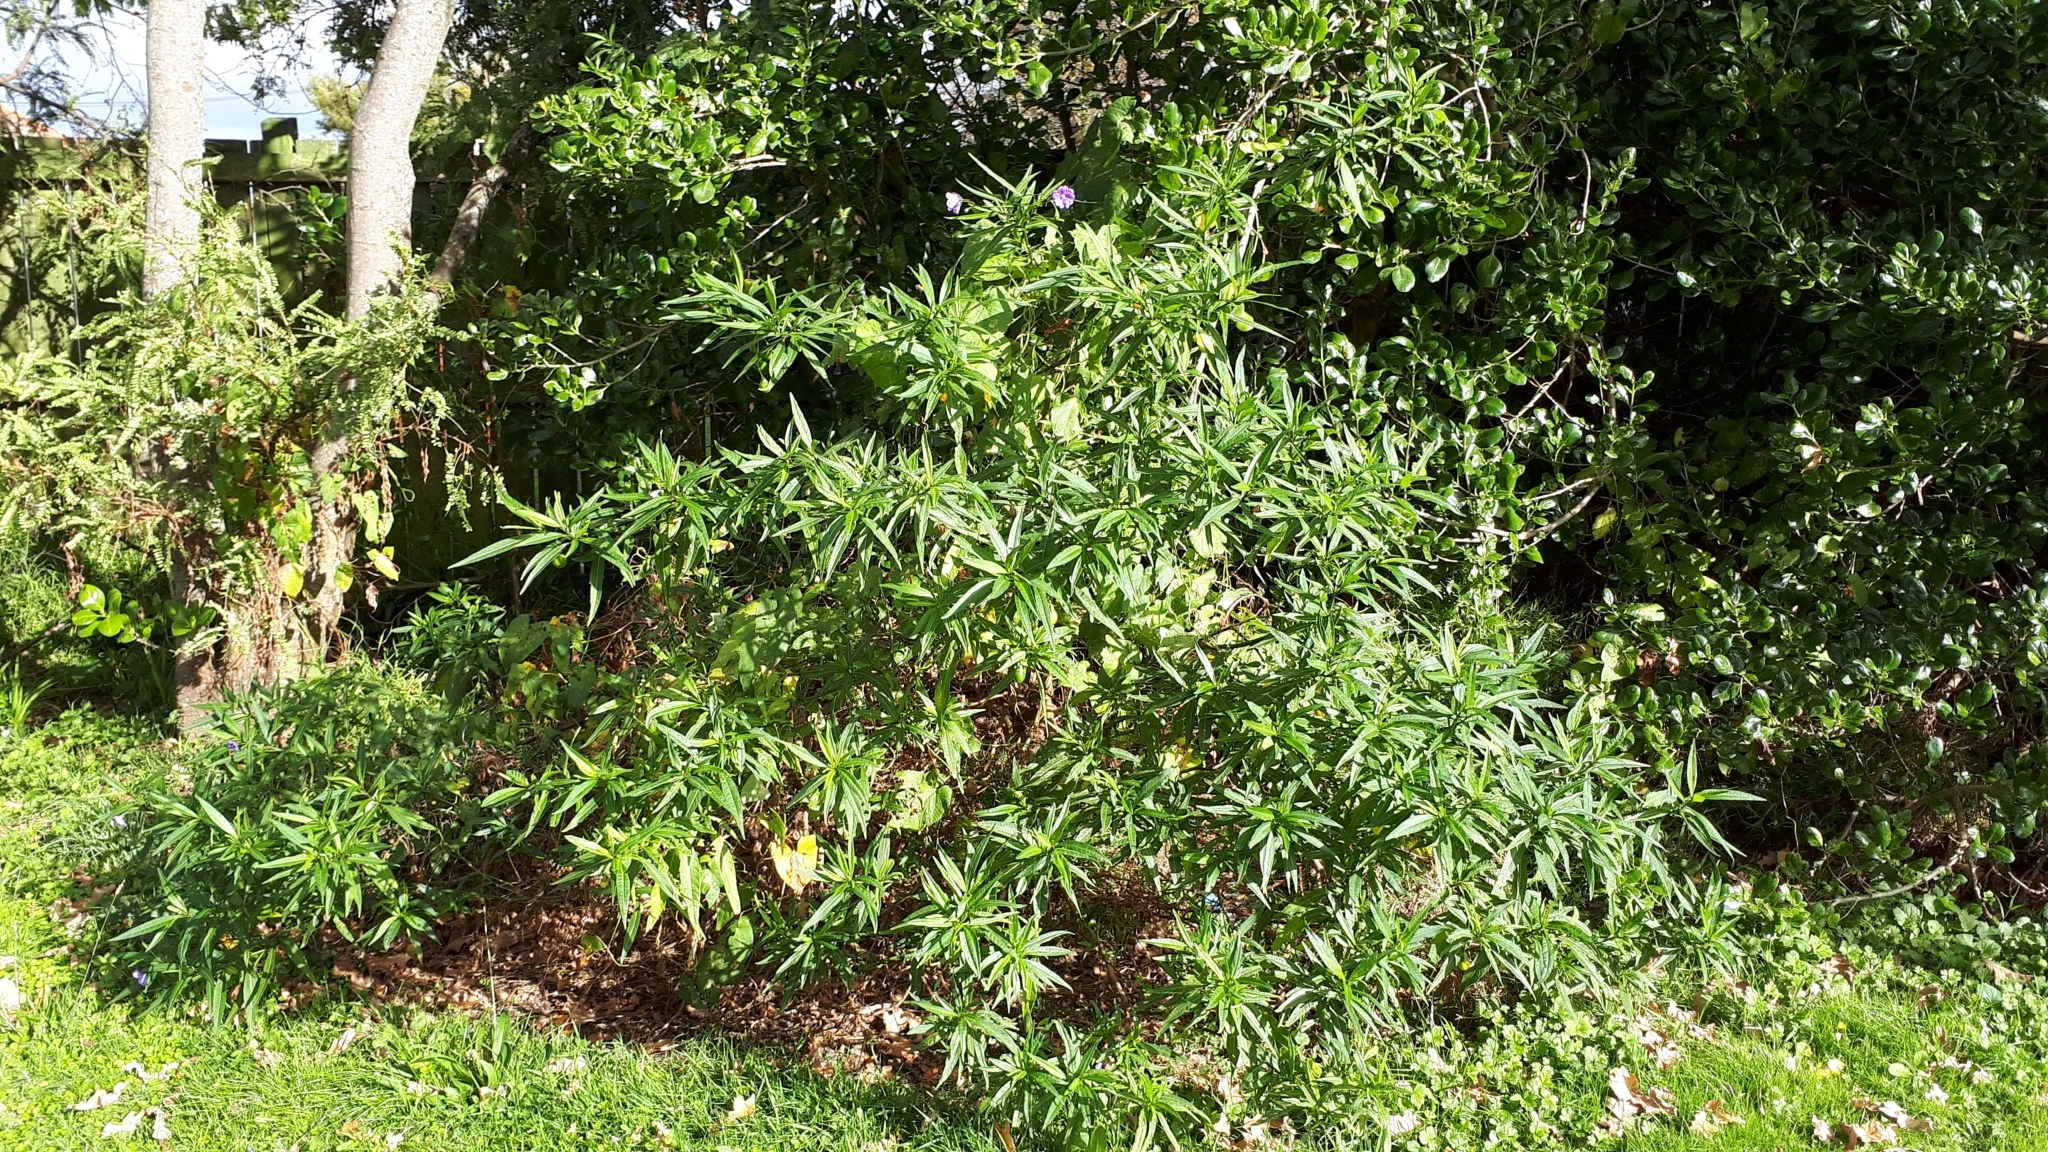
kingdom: Plantae
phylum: Tracheophyta
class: Magnoliopsida
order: Solanales
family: Solanaceae
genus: Solanum
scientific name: Solanum laciniatum
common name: Kangaroo-apple
